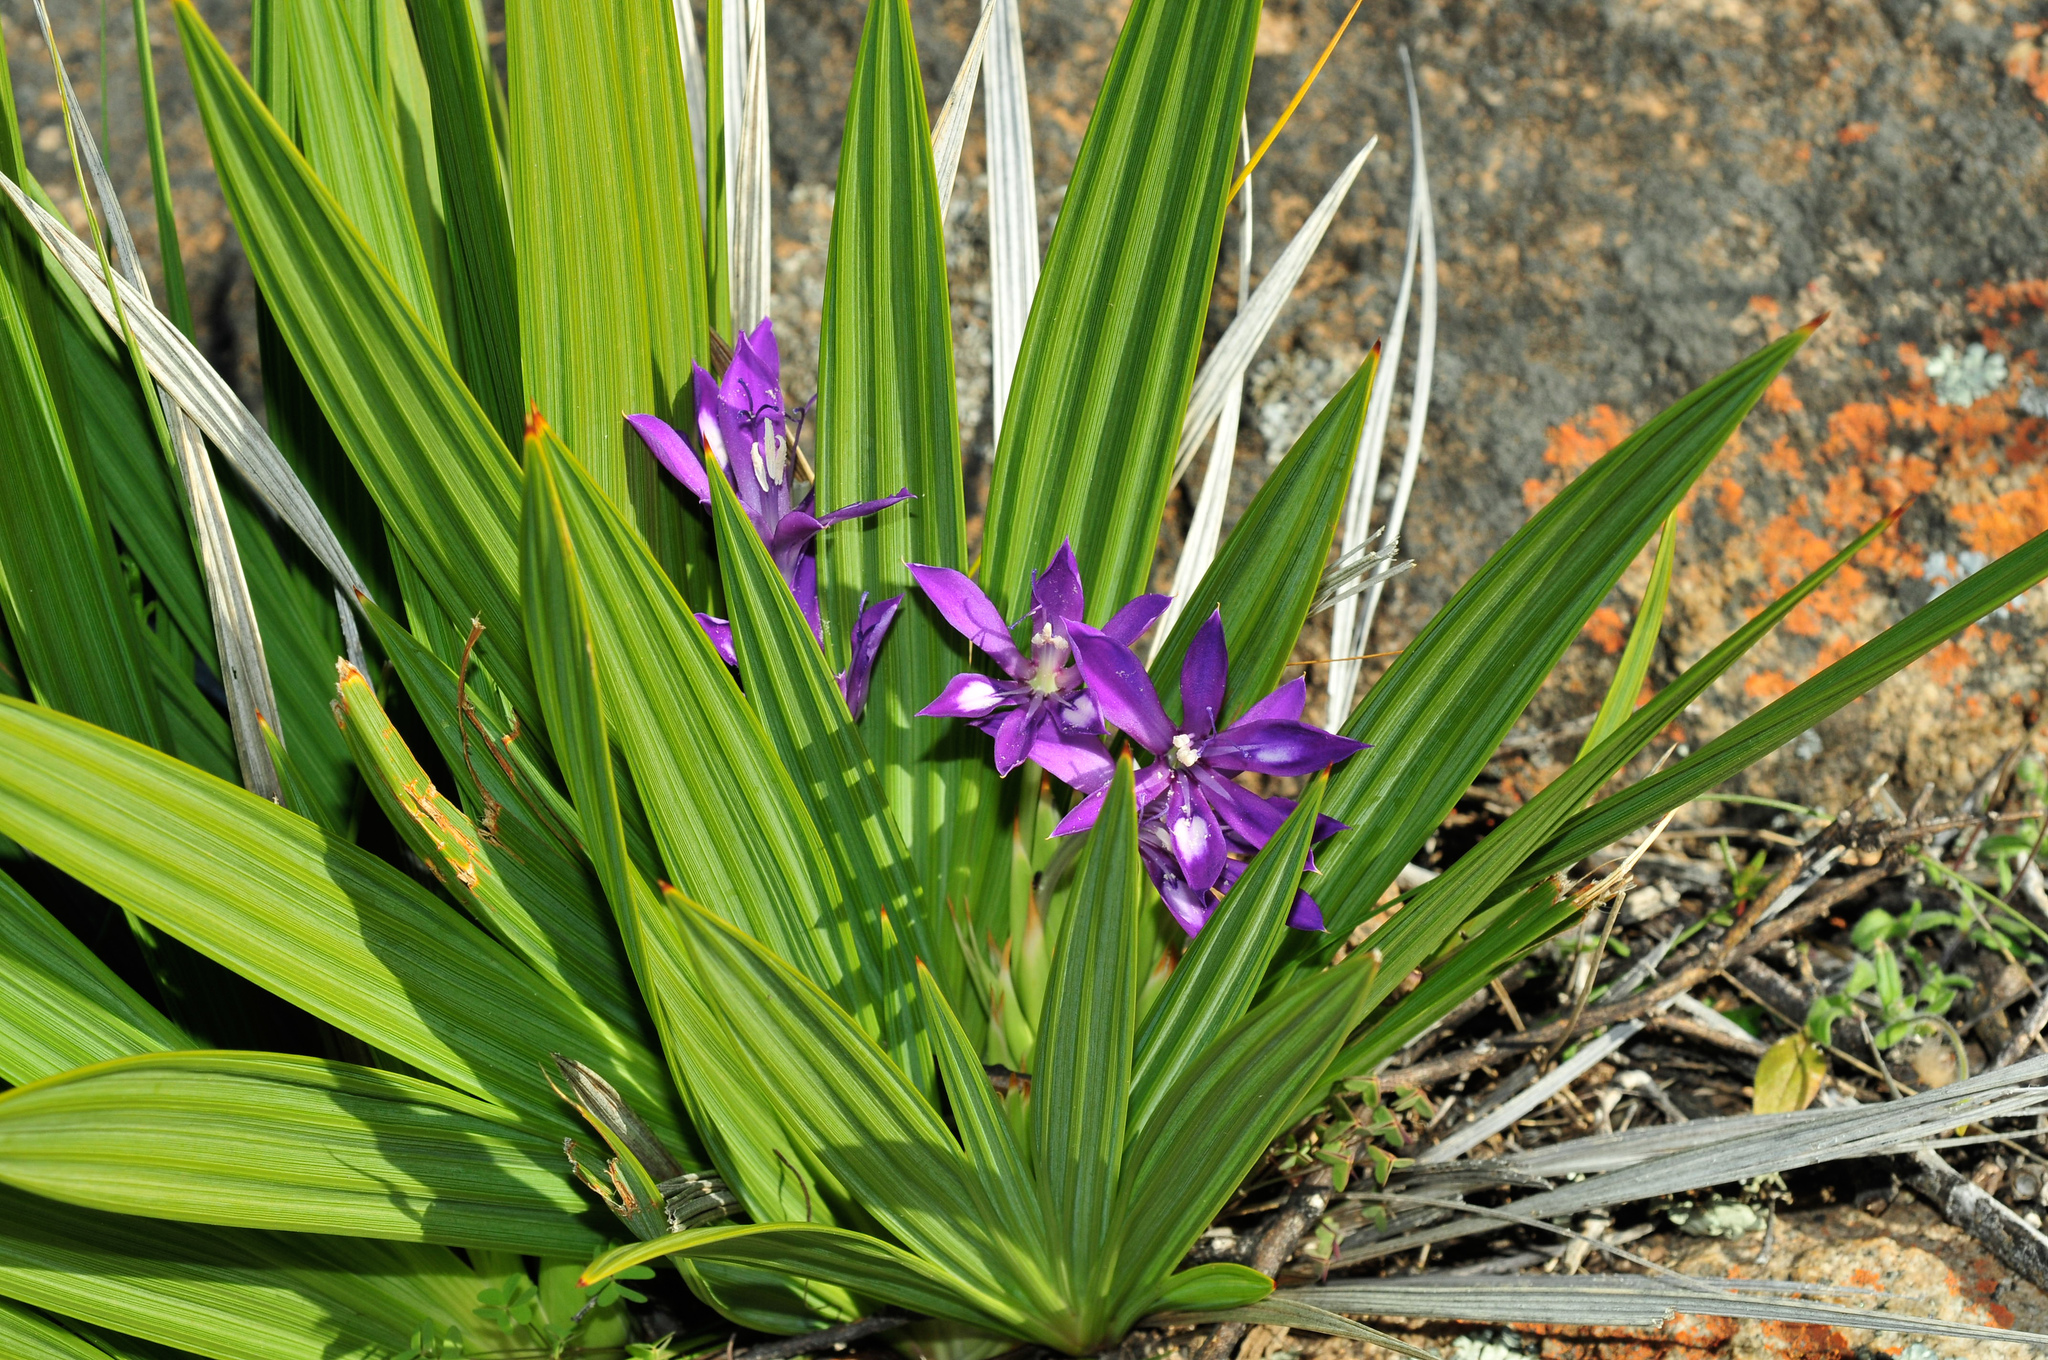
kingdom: Plantae
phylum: Tracheophyta
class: Liliopsida
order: Asparagales
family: Iridaceae
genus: Babiana
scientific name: Babiana dregei
